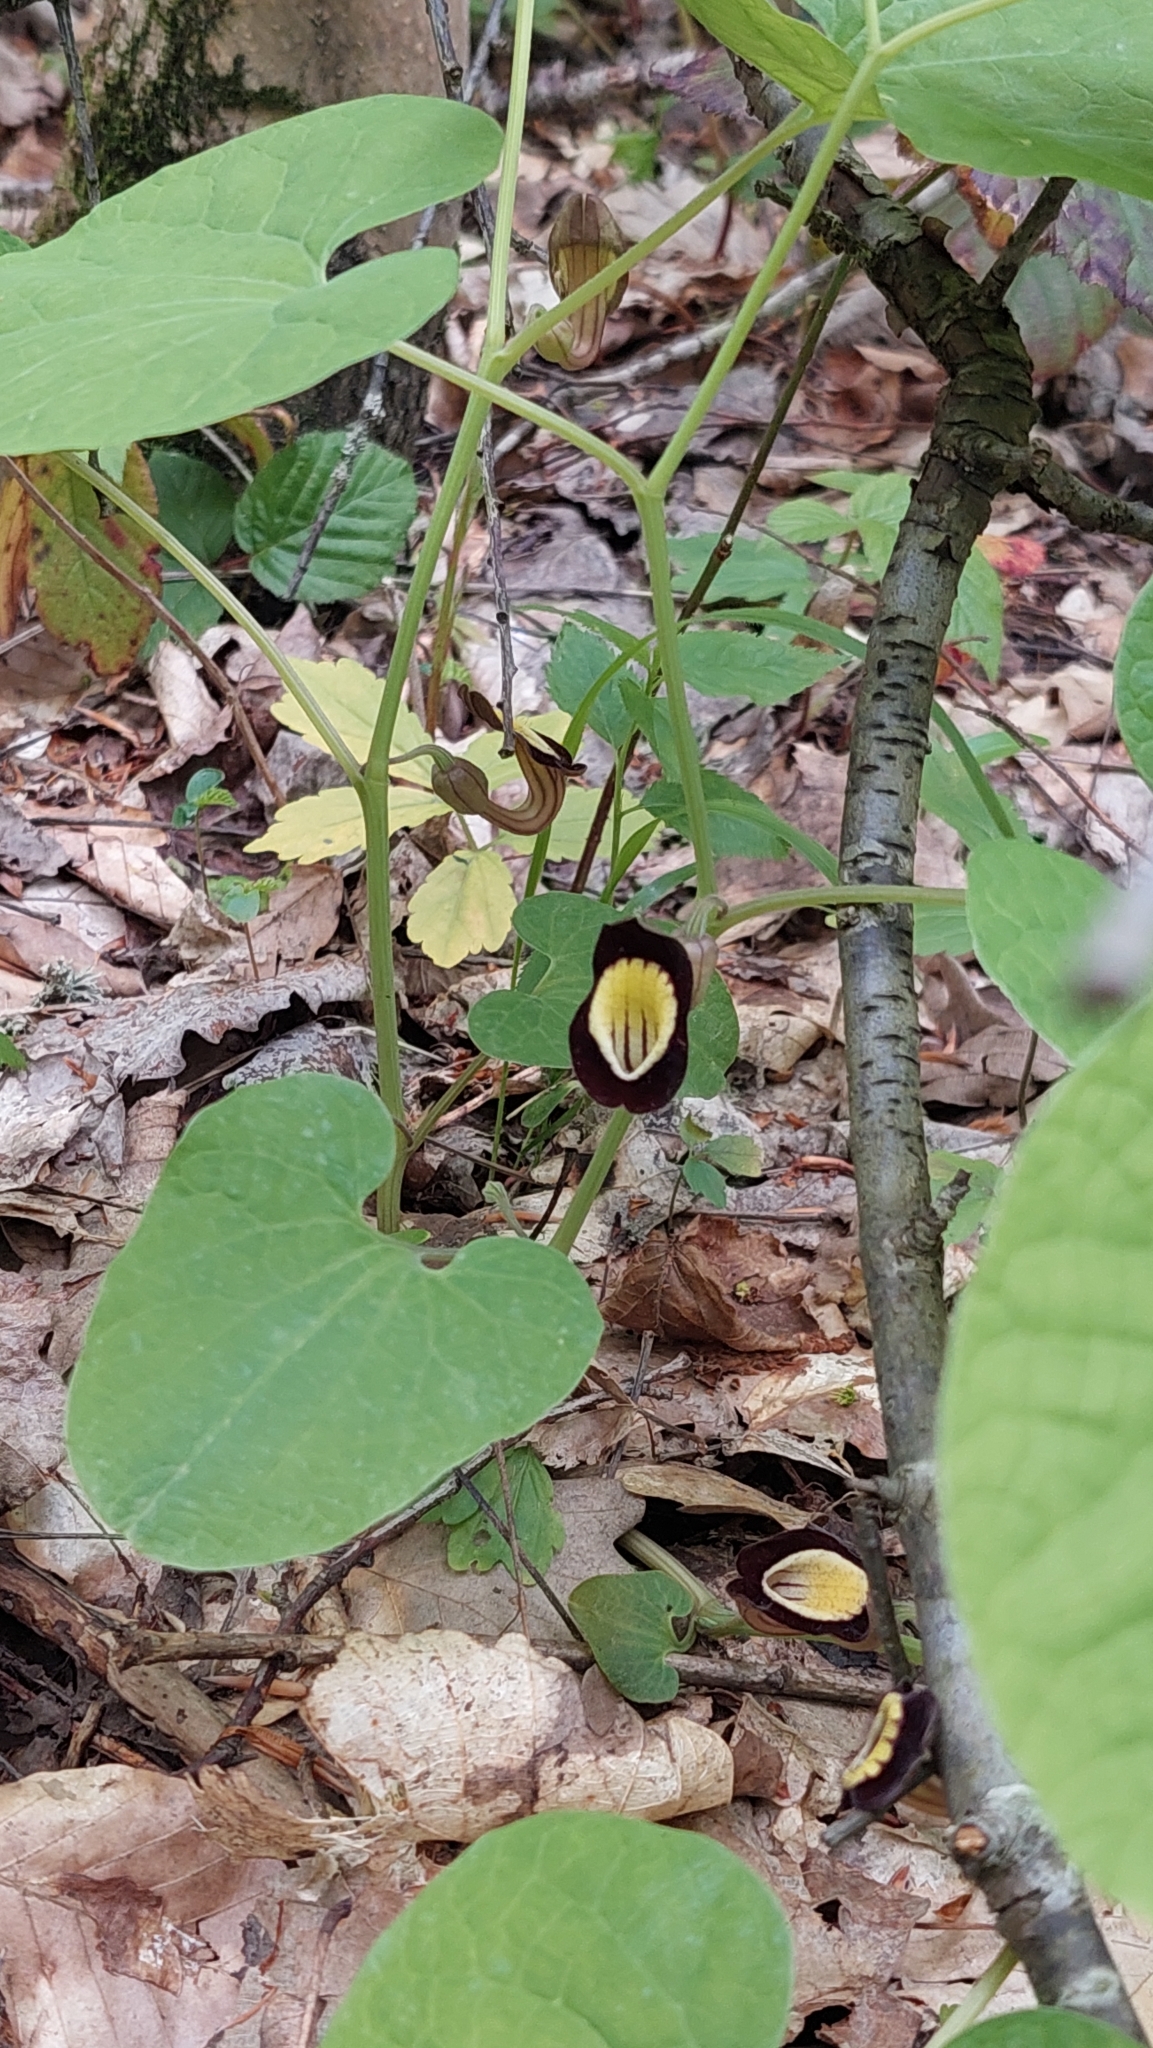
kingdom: Plantae
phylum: Tracheophyta
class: Magnoliopsida
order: Piperales
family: Aristolochiaceae
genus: Aristolochia
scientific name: Aristolochia steupii
